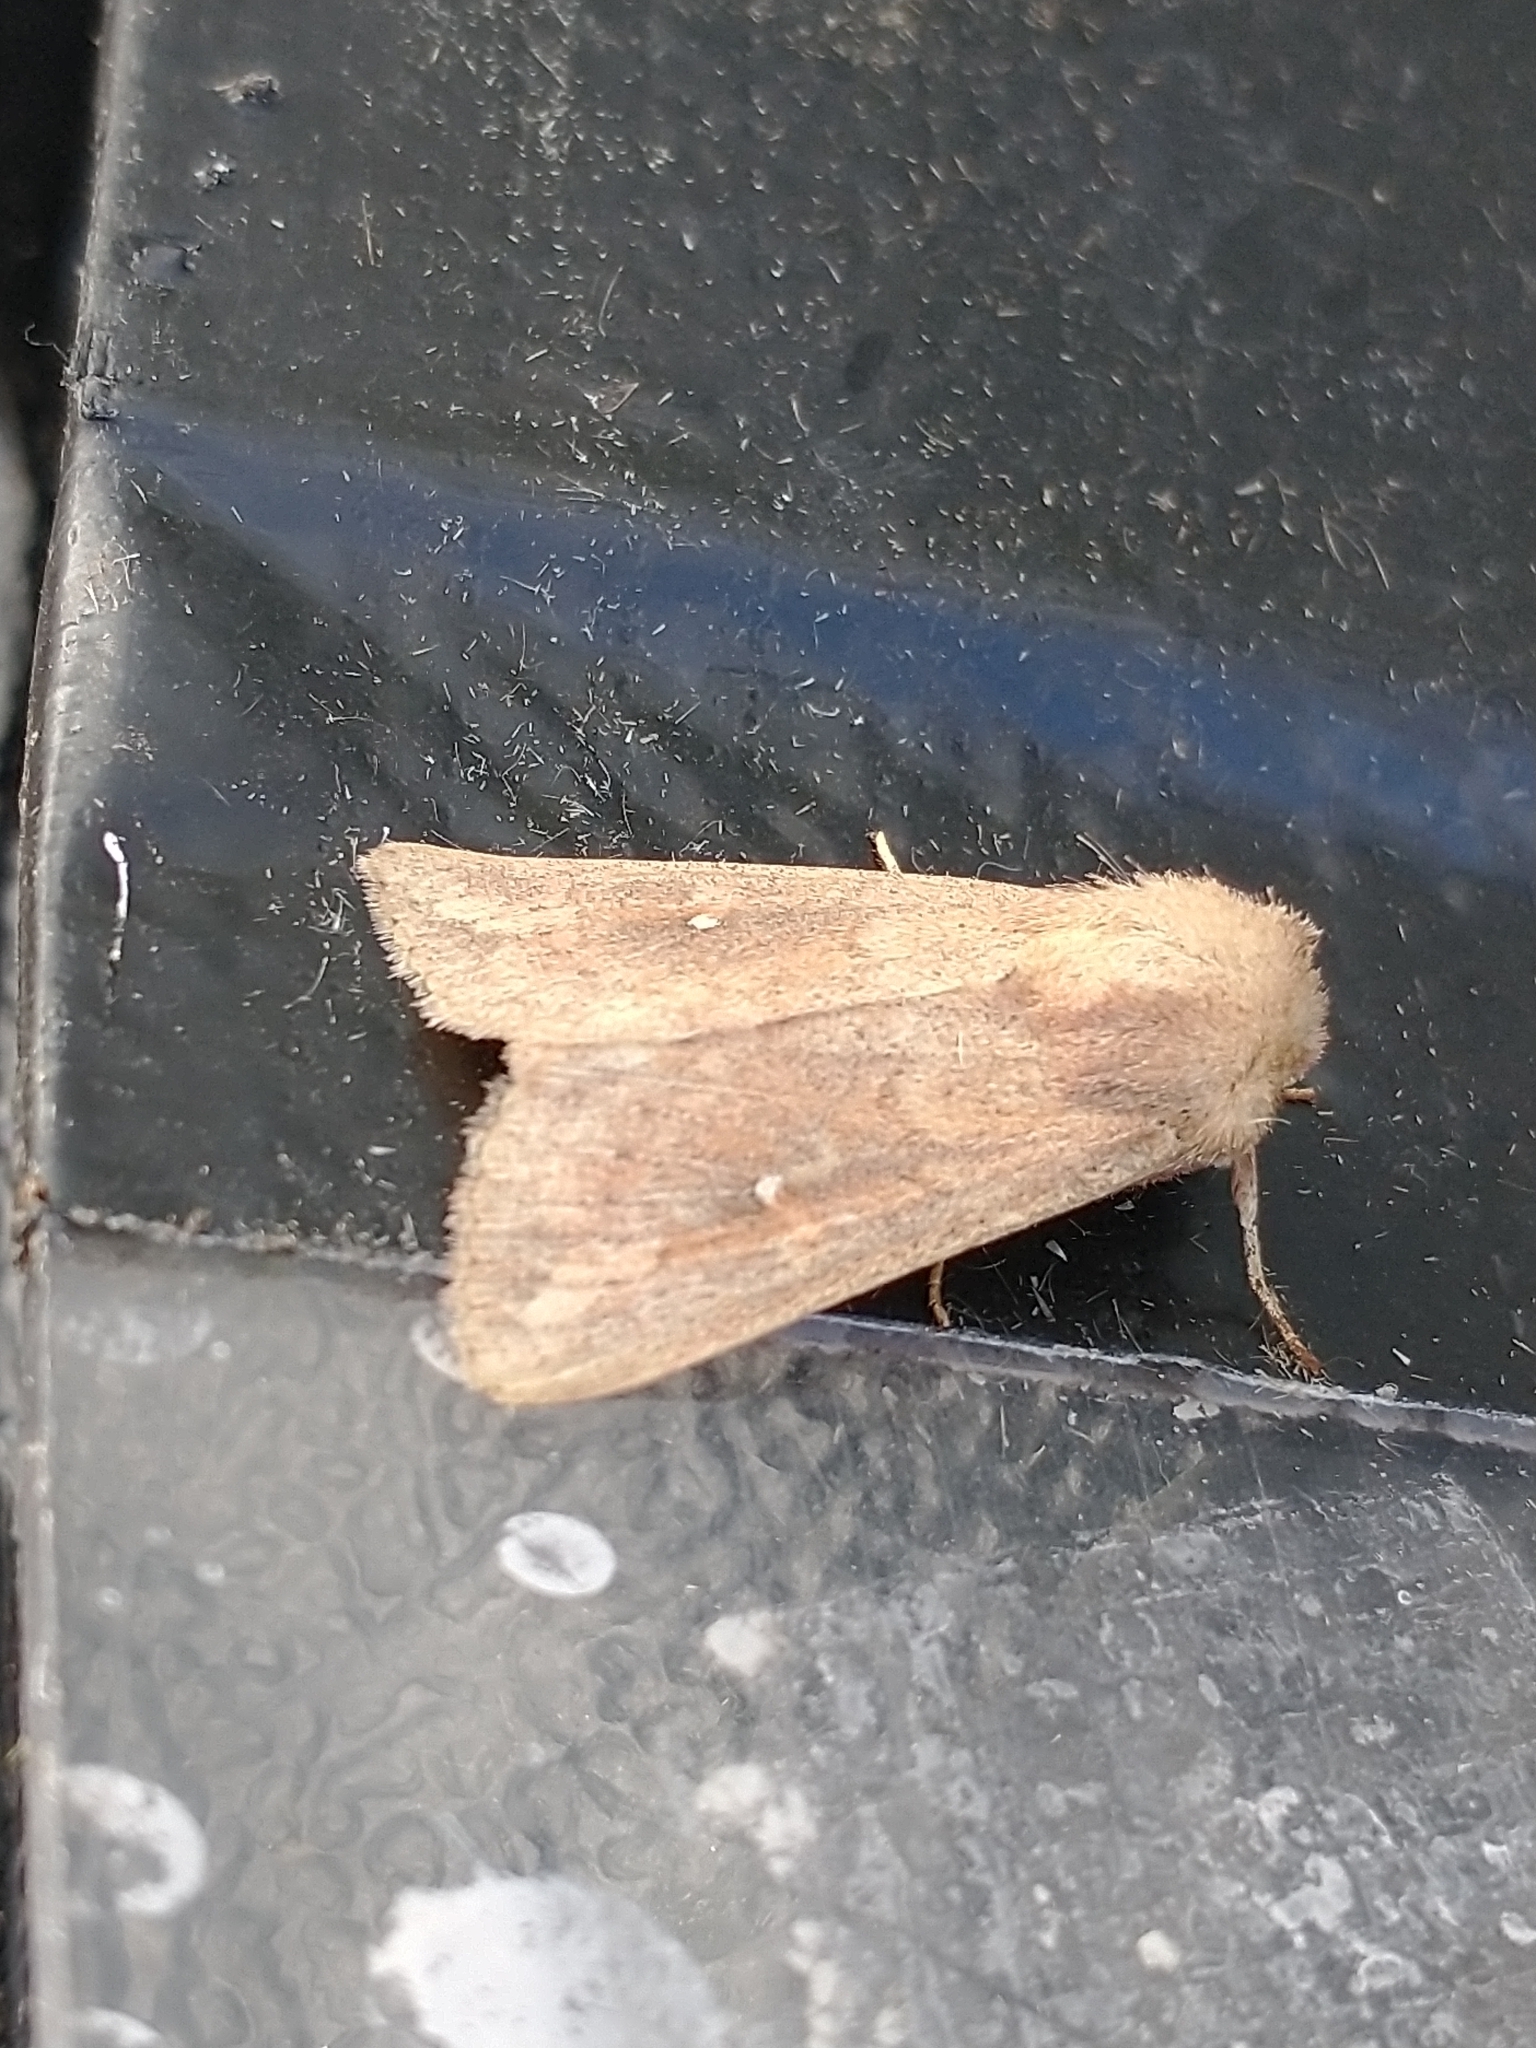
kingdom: Animalia
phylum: Arthropoda
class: Insecta
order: Lepidoptera
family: Noctuidae
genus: Mythimna
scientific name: Mythimna albipuncta
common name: White-point
